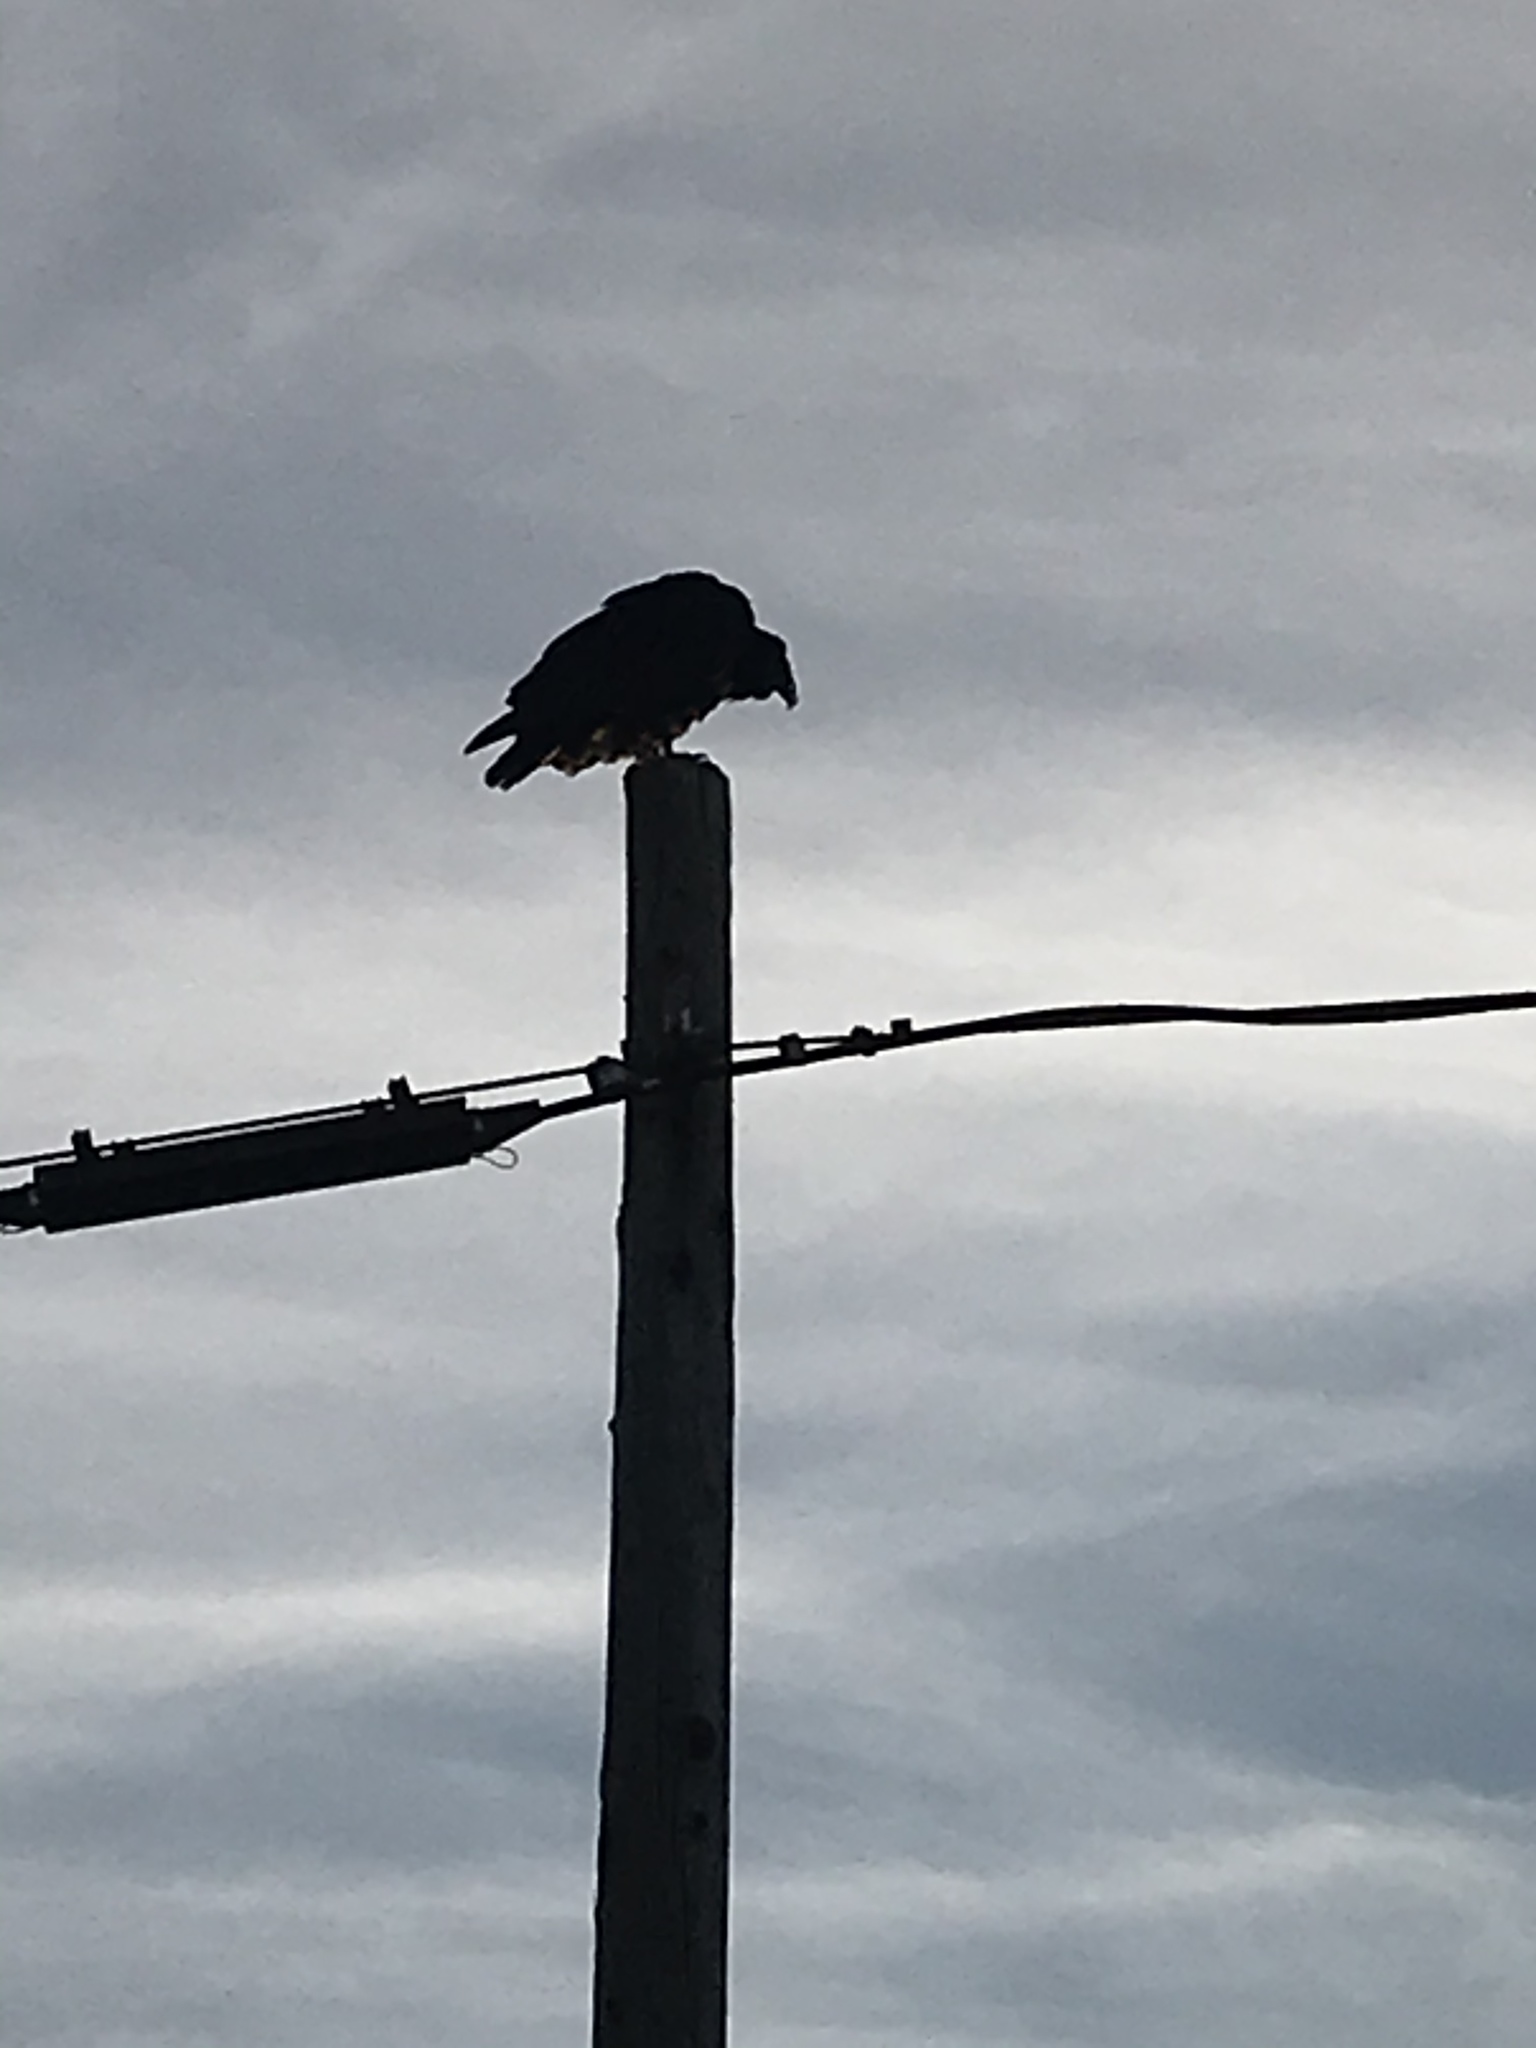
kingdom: Animalia
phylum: Chordata
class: Aves
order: Accipitriformes
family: Cathartidae
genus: Cathartes
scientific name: Cathartes aura
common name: Turkey vulture
